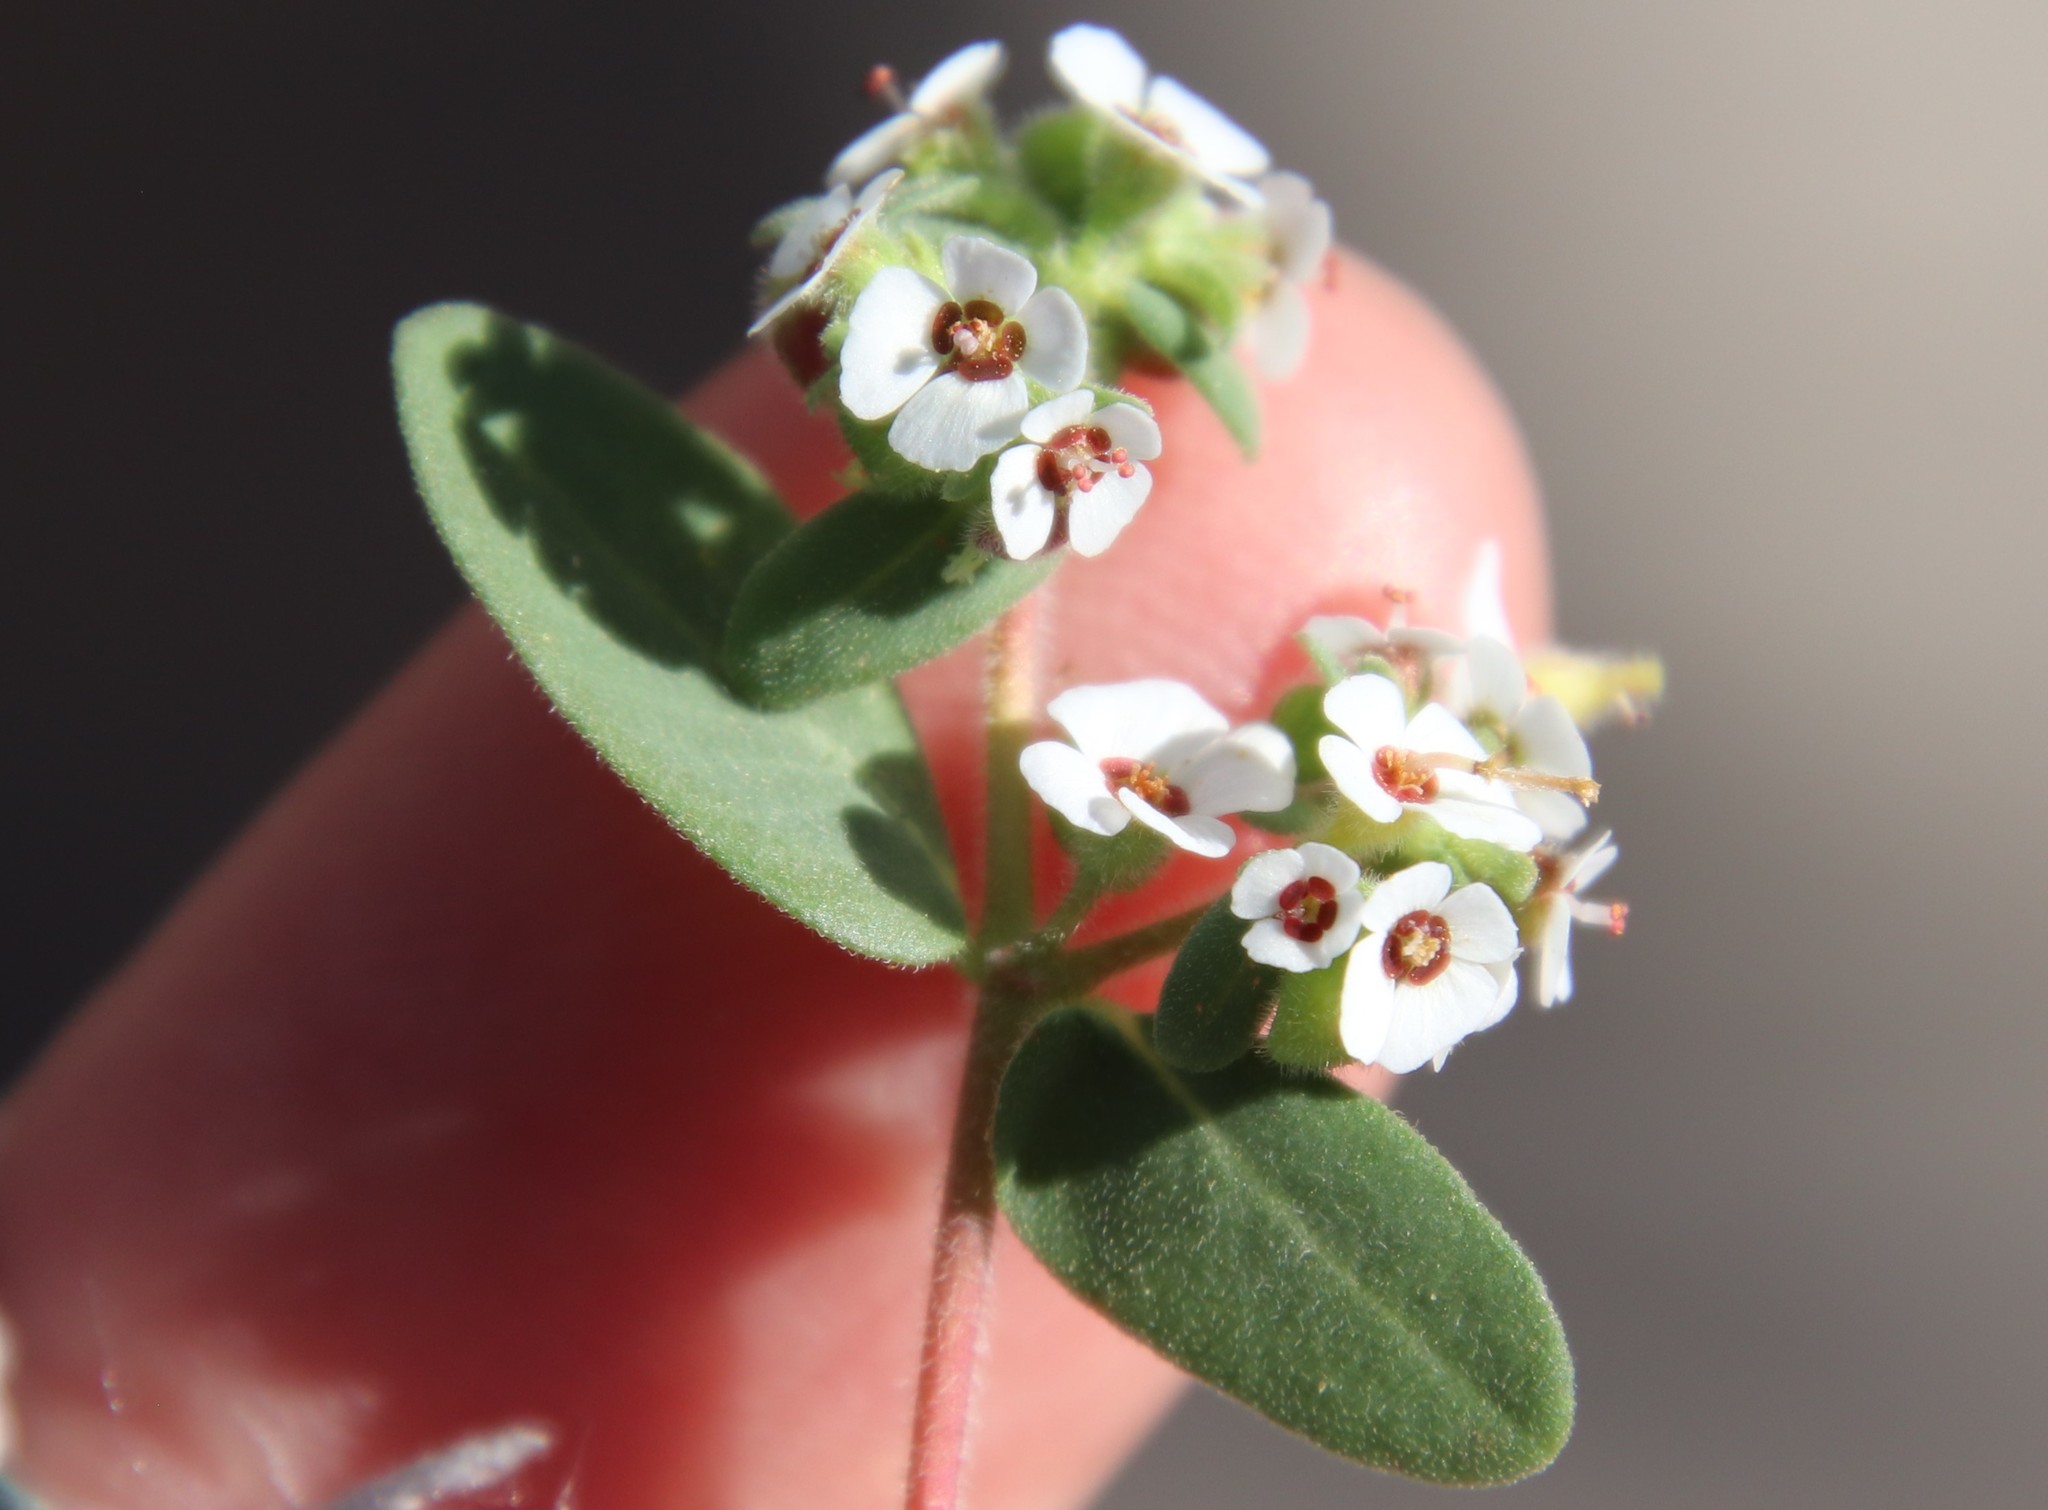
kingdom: Plantae
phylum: Tracheophyta
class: Magnoliopsida
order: Malpighiales
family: Euphorbiaceae
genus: Euphorbia
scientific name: Euphorbia peninsularis
